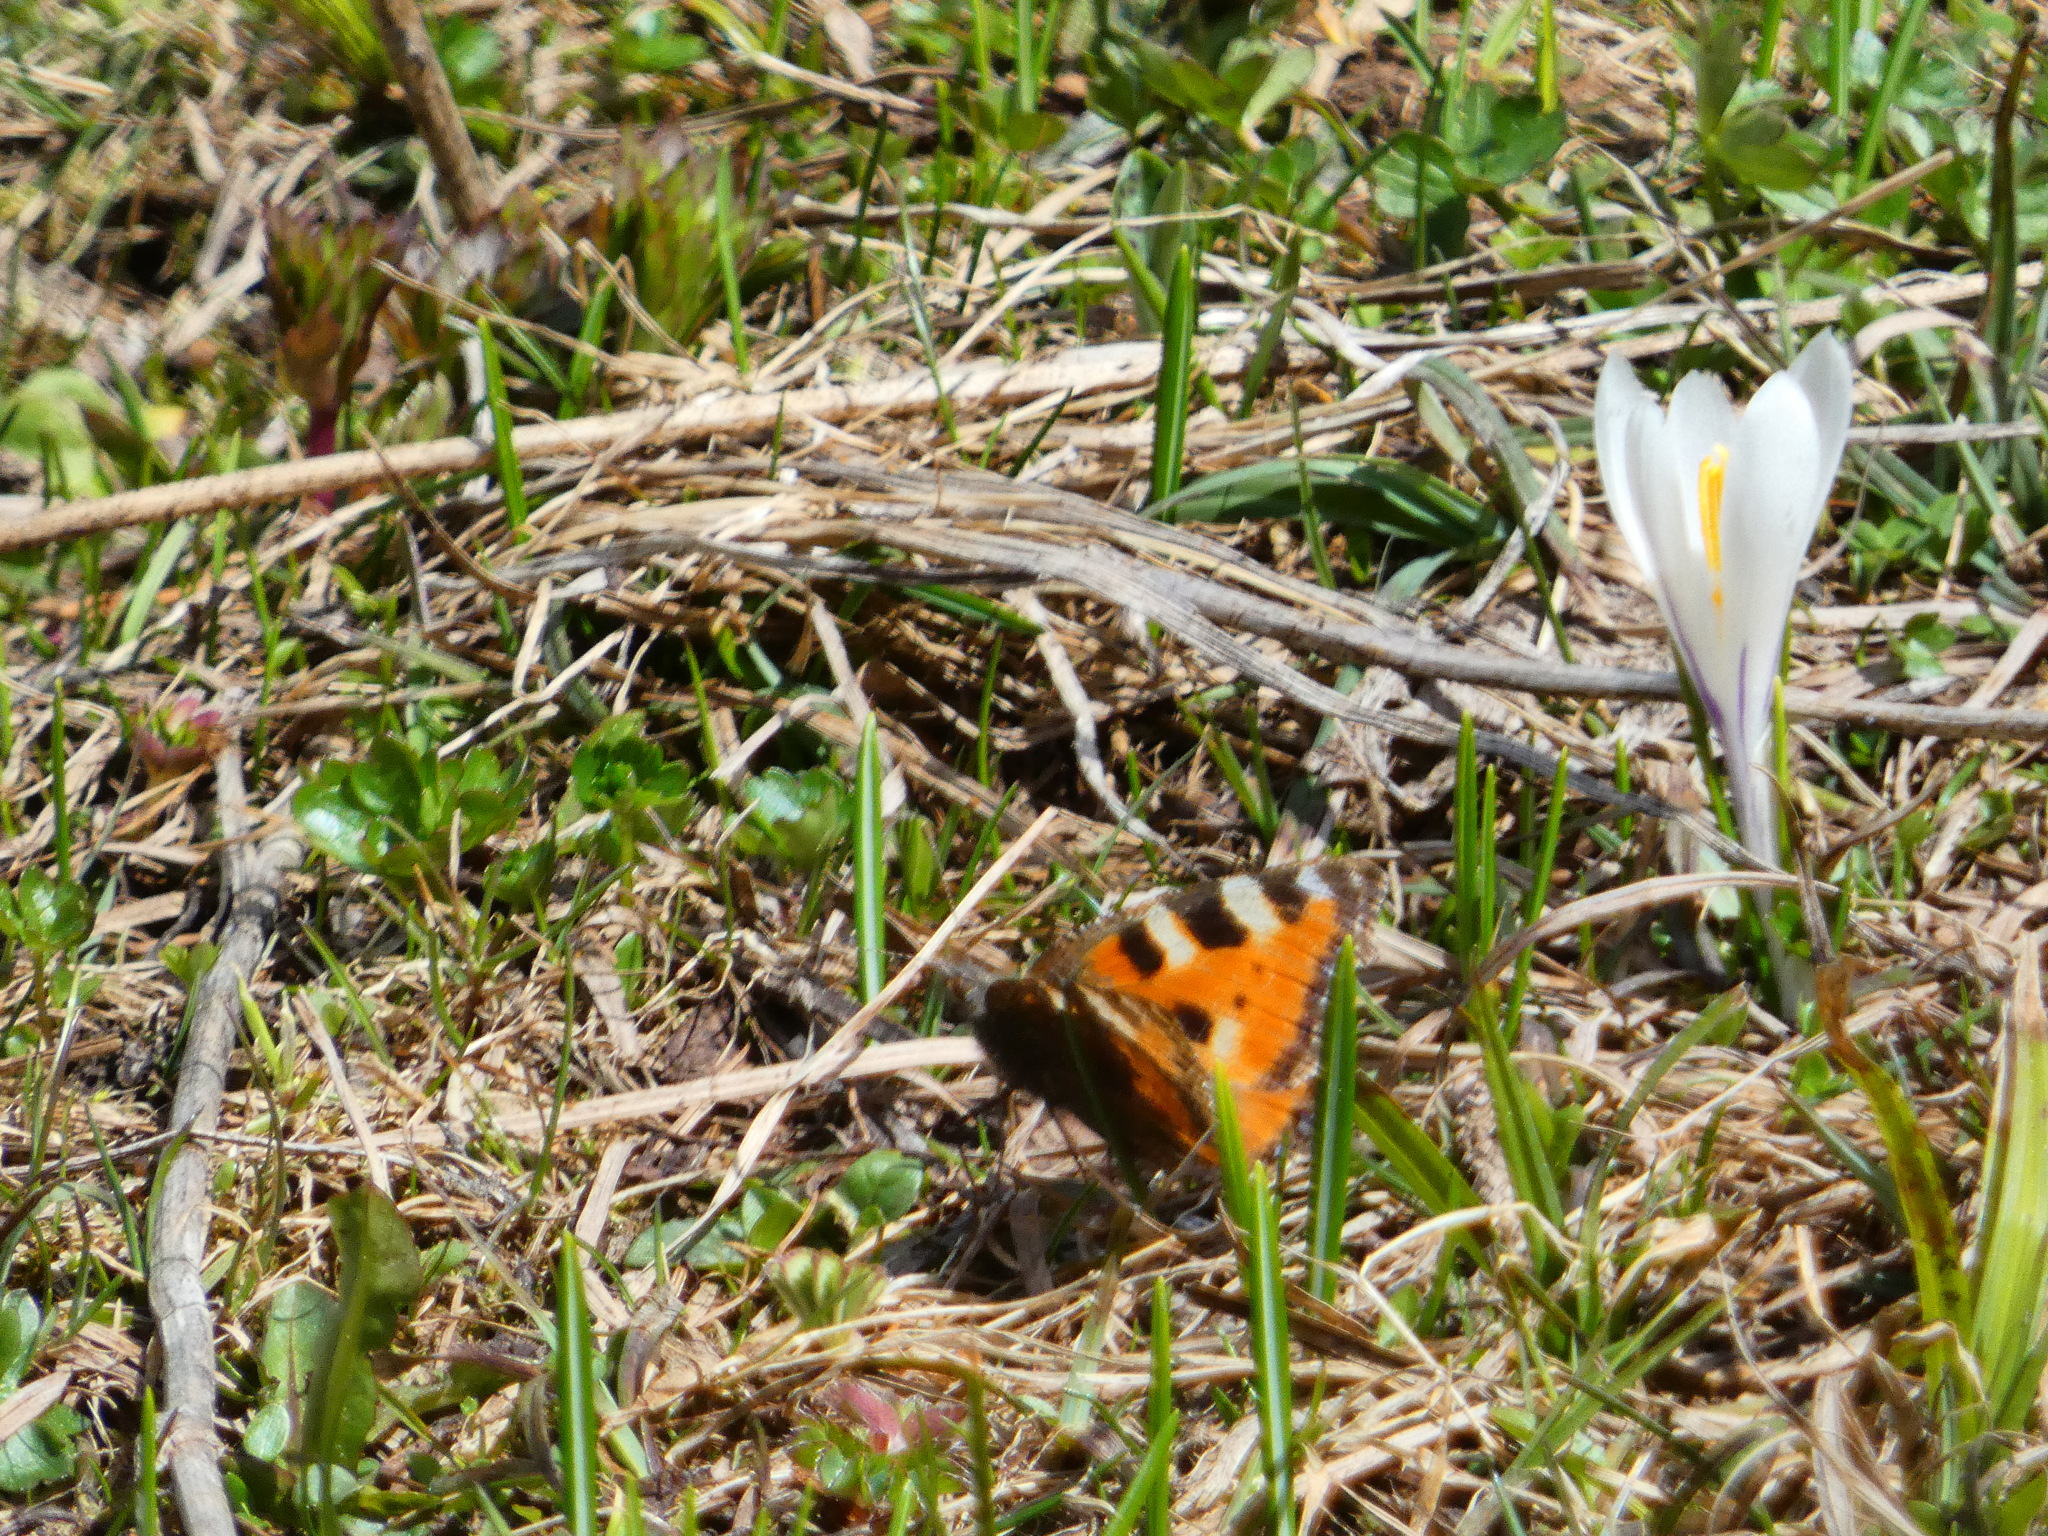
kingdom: Animalia
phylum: Arthropoda
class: Insecta
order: Lepidoptera
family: Nymphalidae
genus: Aglais
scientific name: Aglais urticae
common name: Small tortoiseshell
